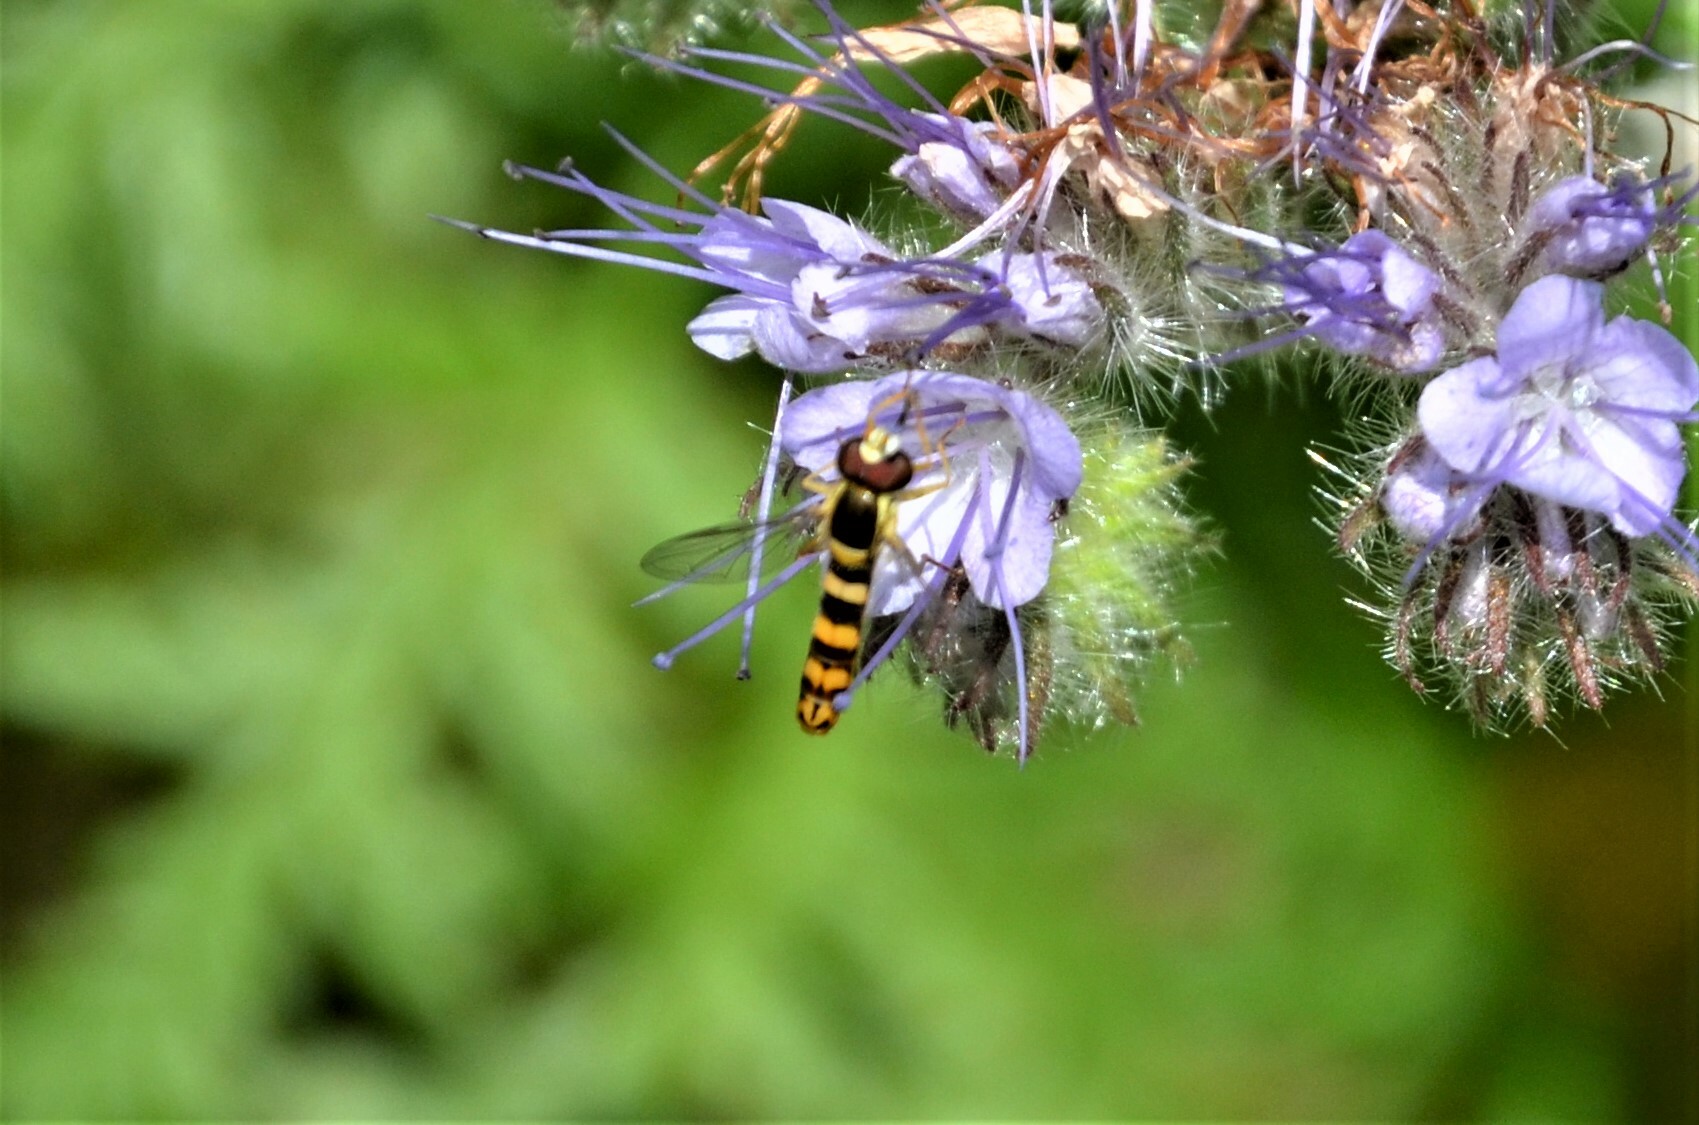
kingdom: Animalia
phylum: Arthropoda
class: Insecta
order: Diptera
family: Syrphidae
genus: Sphaerophoria
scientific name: Sphaerophoria scripta
